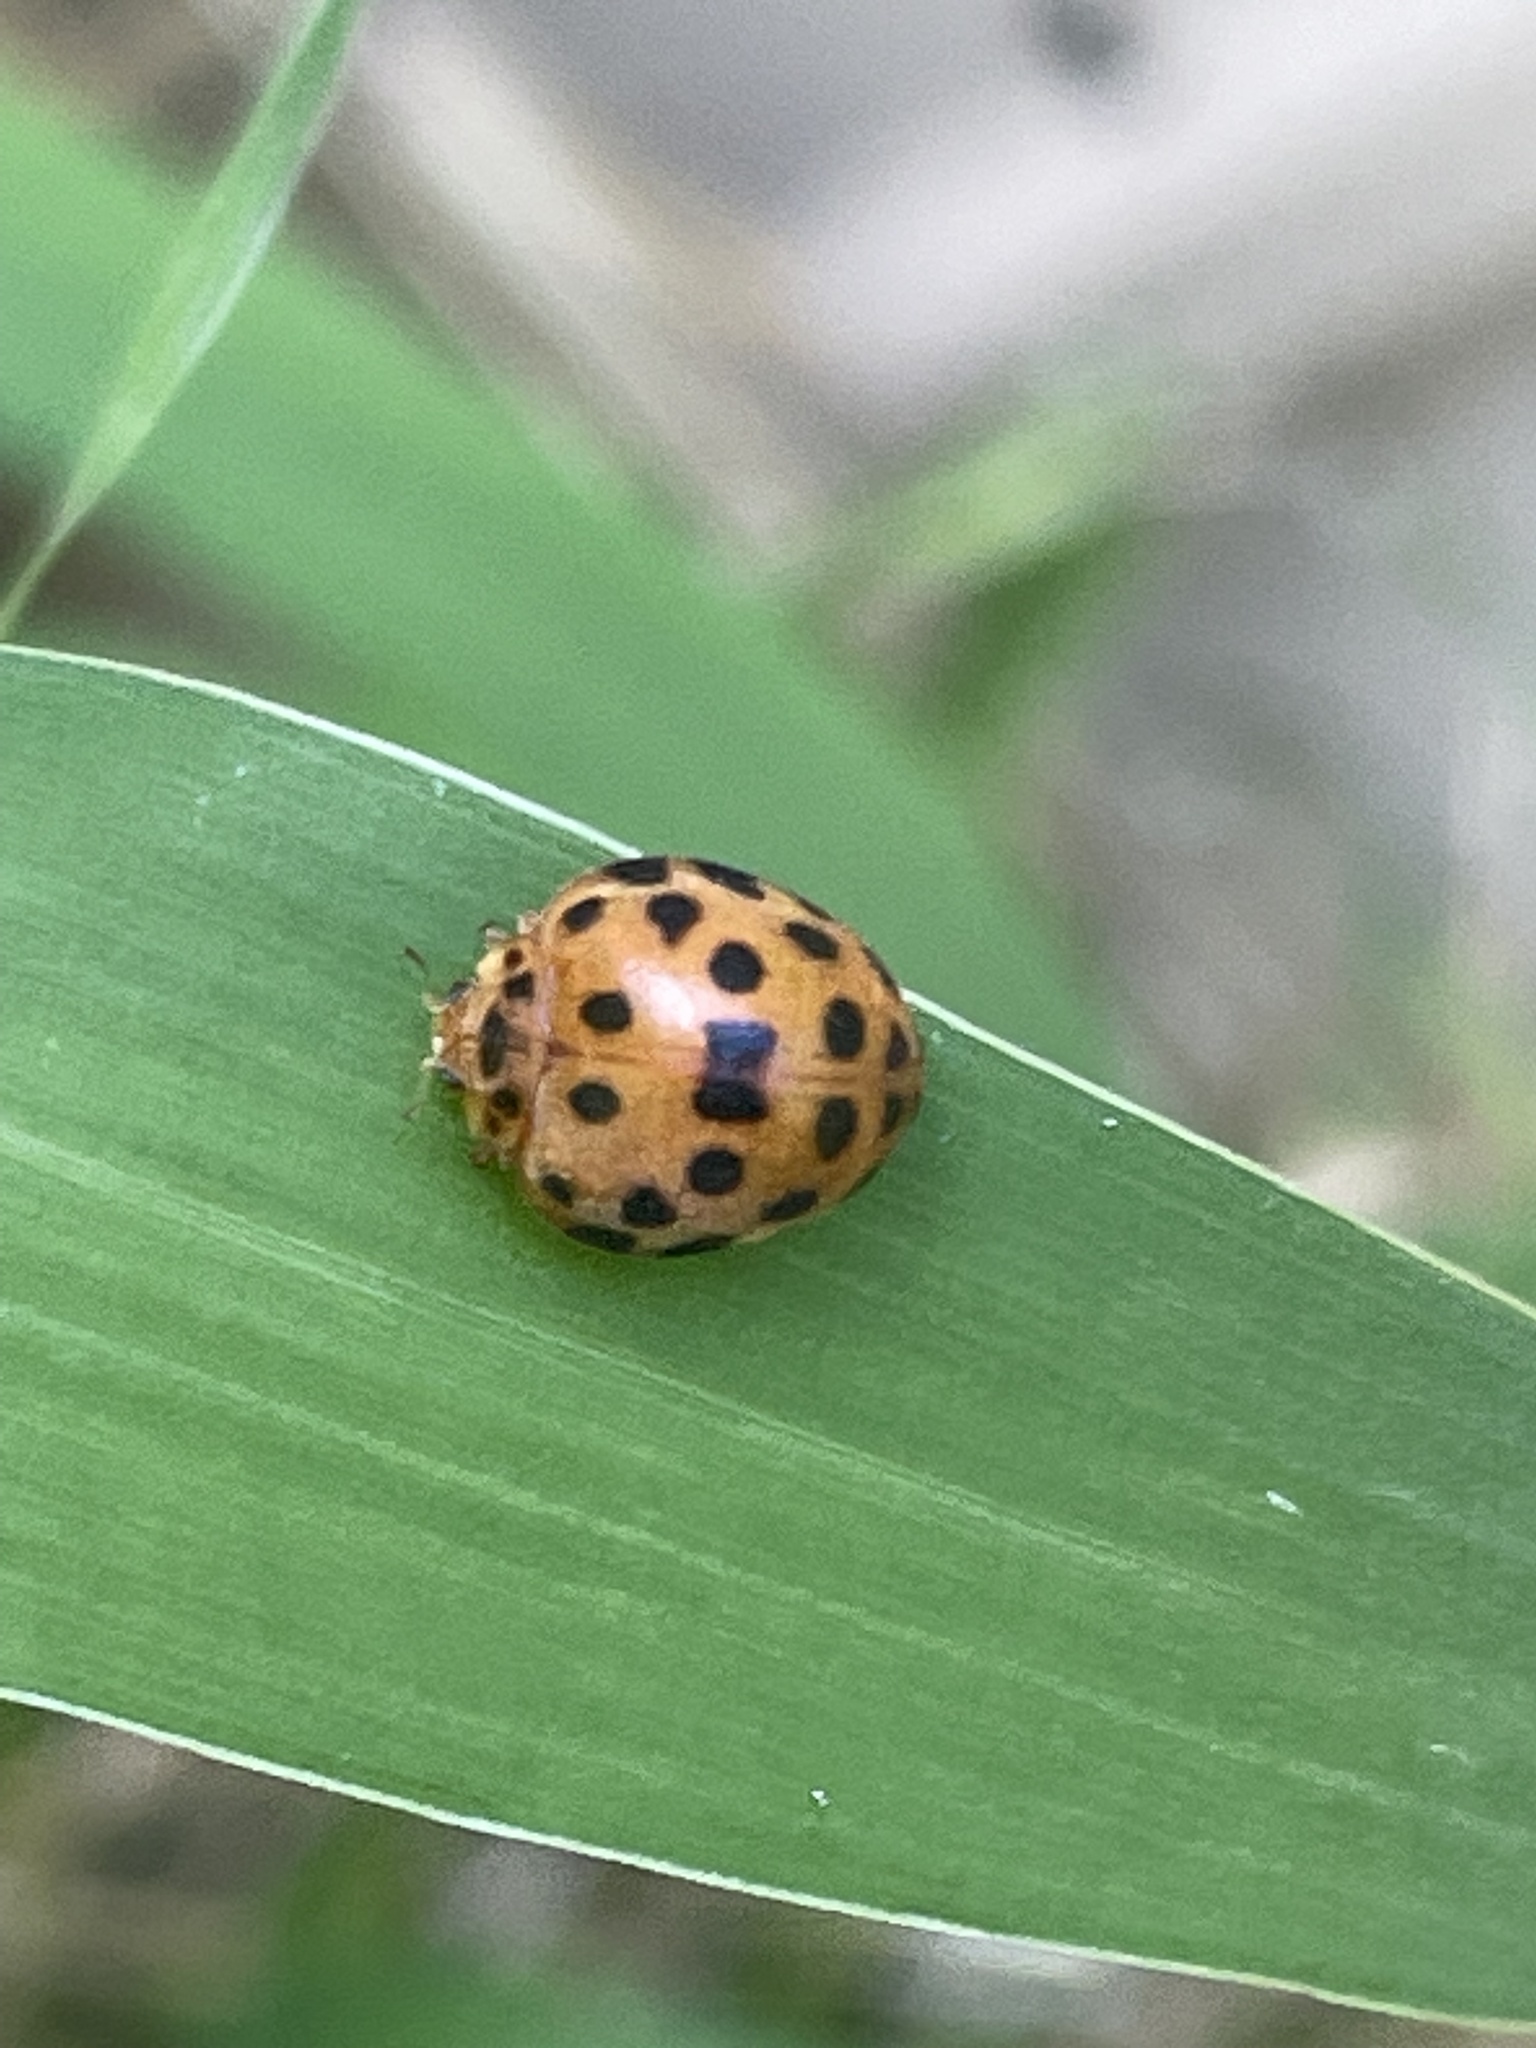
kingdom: Animalia
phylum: Arthropoda
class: Insecta
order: Coleoptera
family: Coccinellidae
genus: Henosepilachna
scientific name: Henosepilachna vigintioctopunctata
